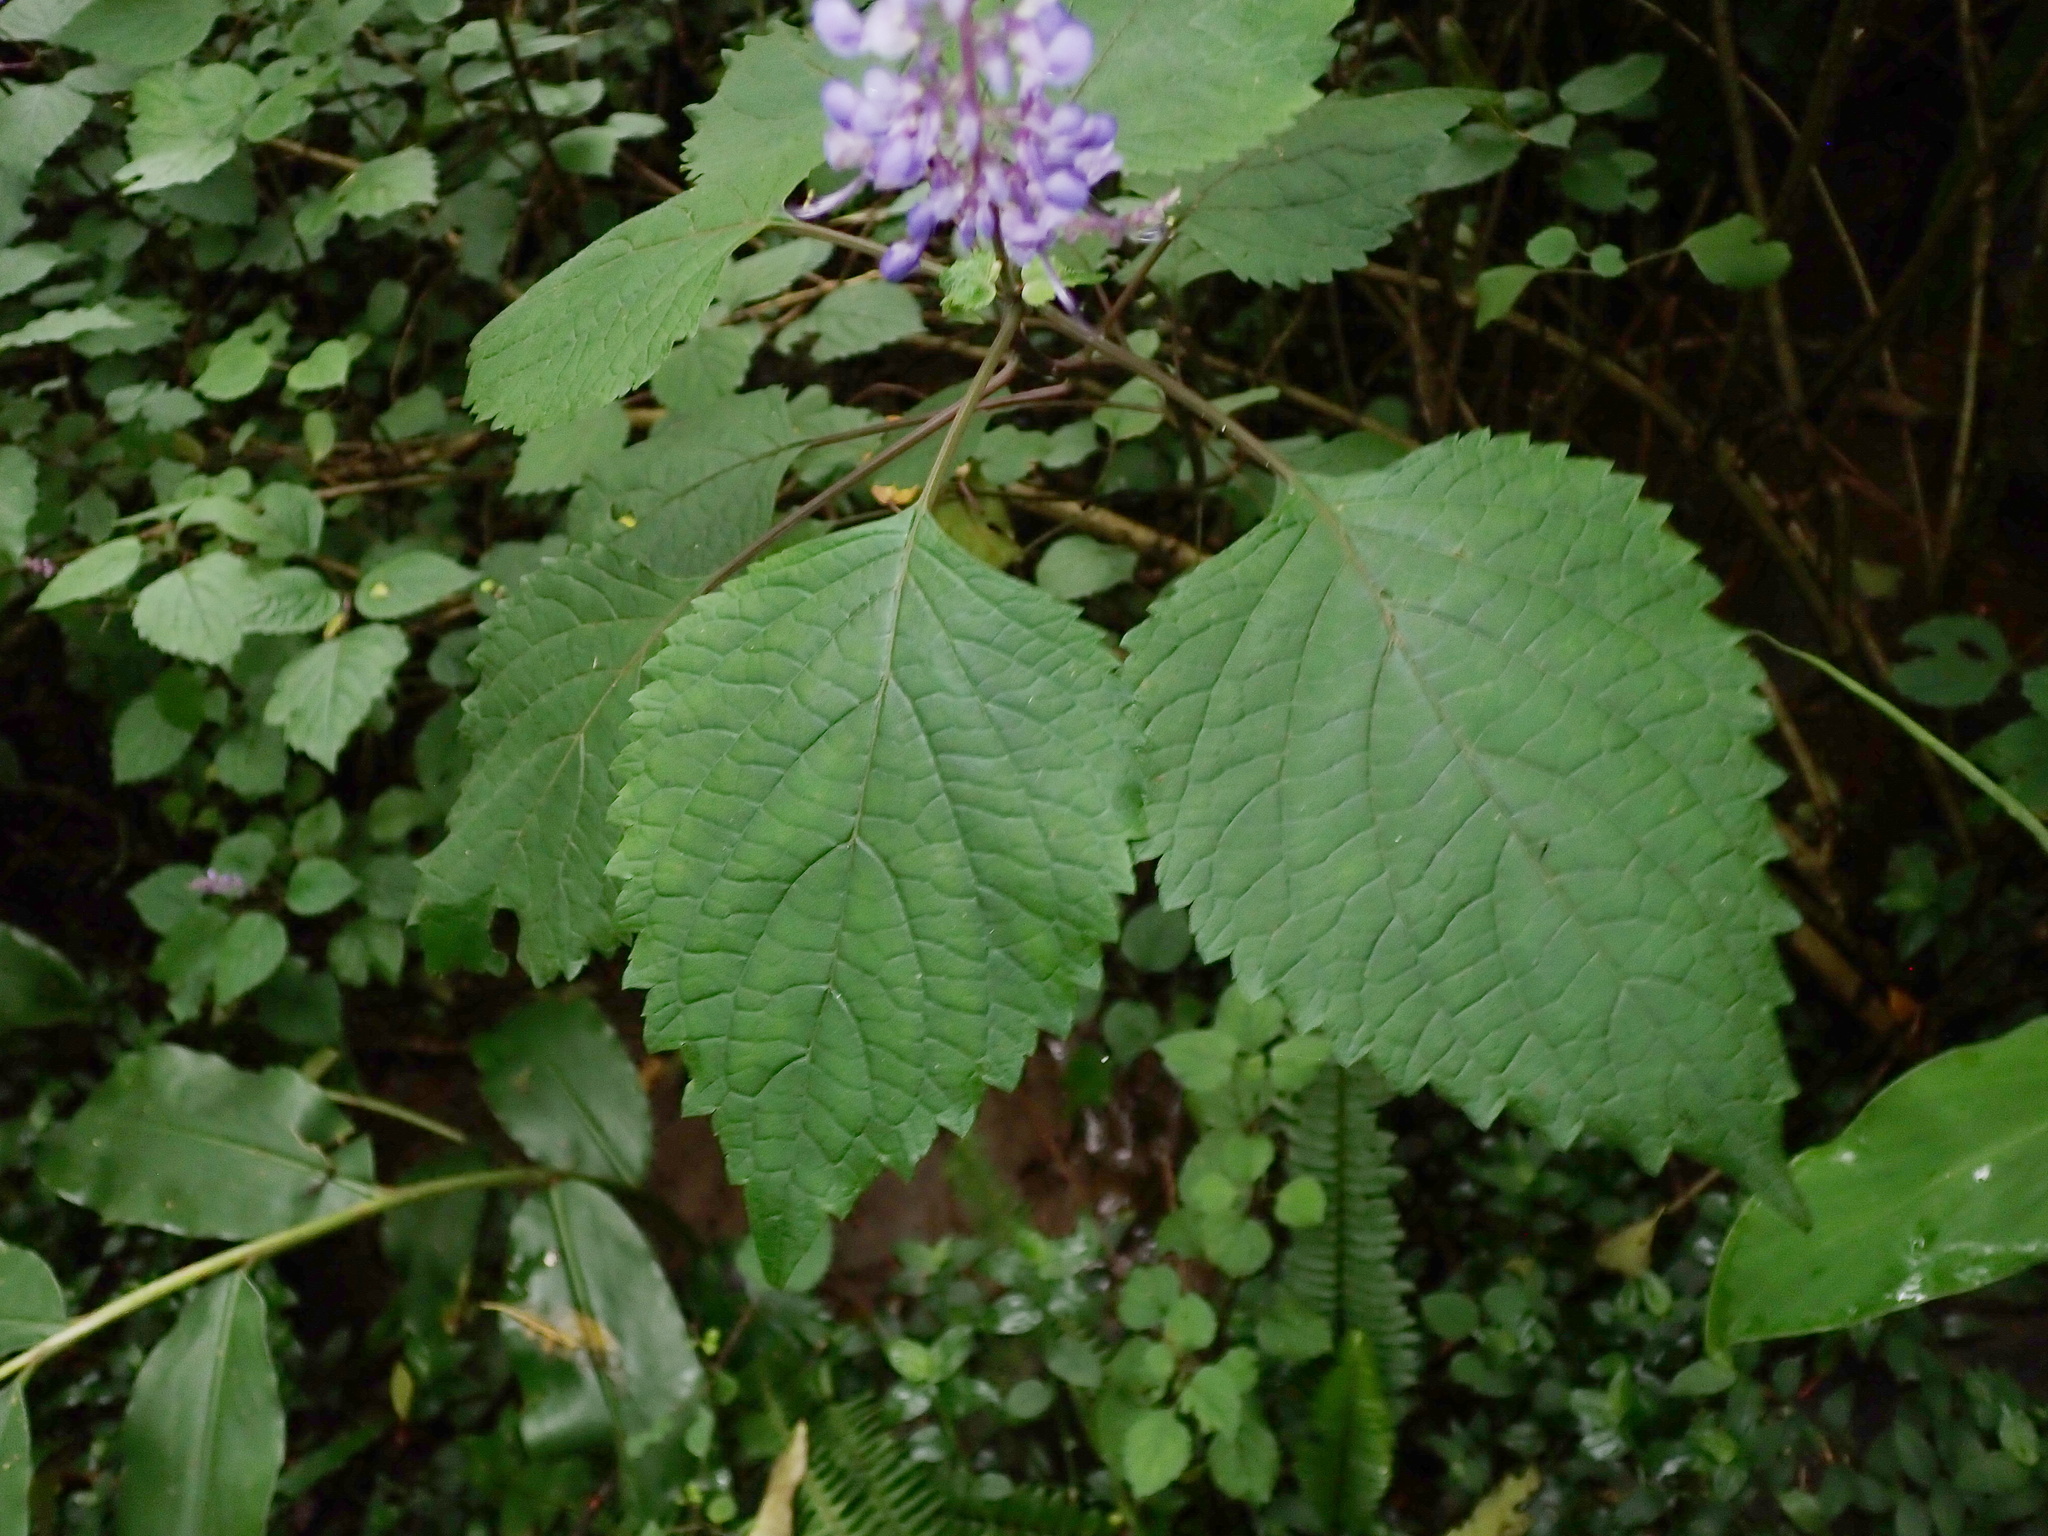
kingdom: Plantae
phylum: Tracheophyta
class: Magnoliopsida
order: Lamiales
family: Lamiaceae
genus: Plectranthus
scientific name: Plectranthus fruticosus
